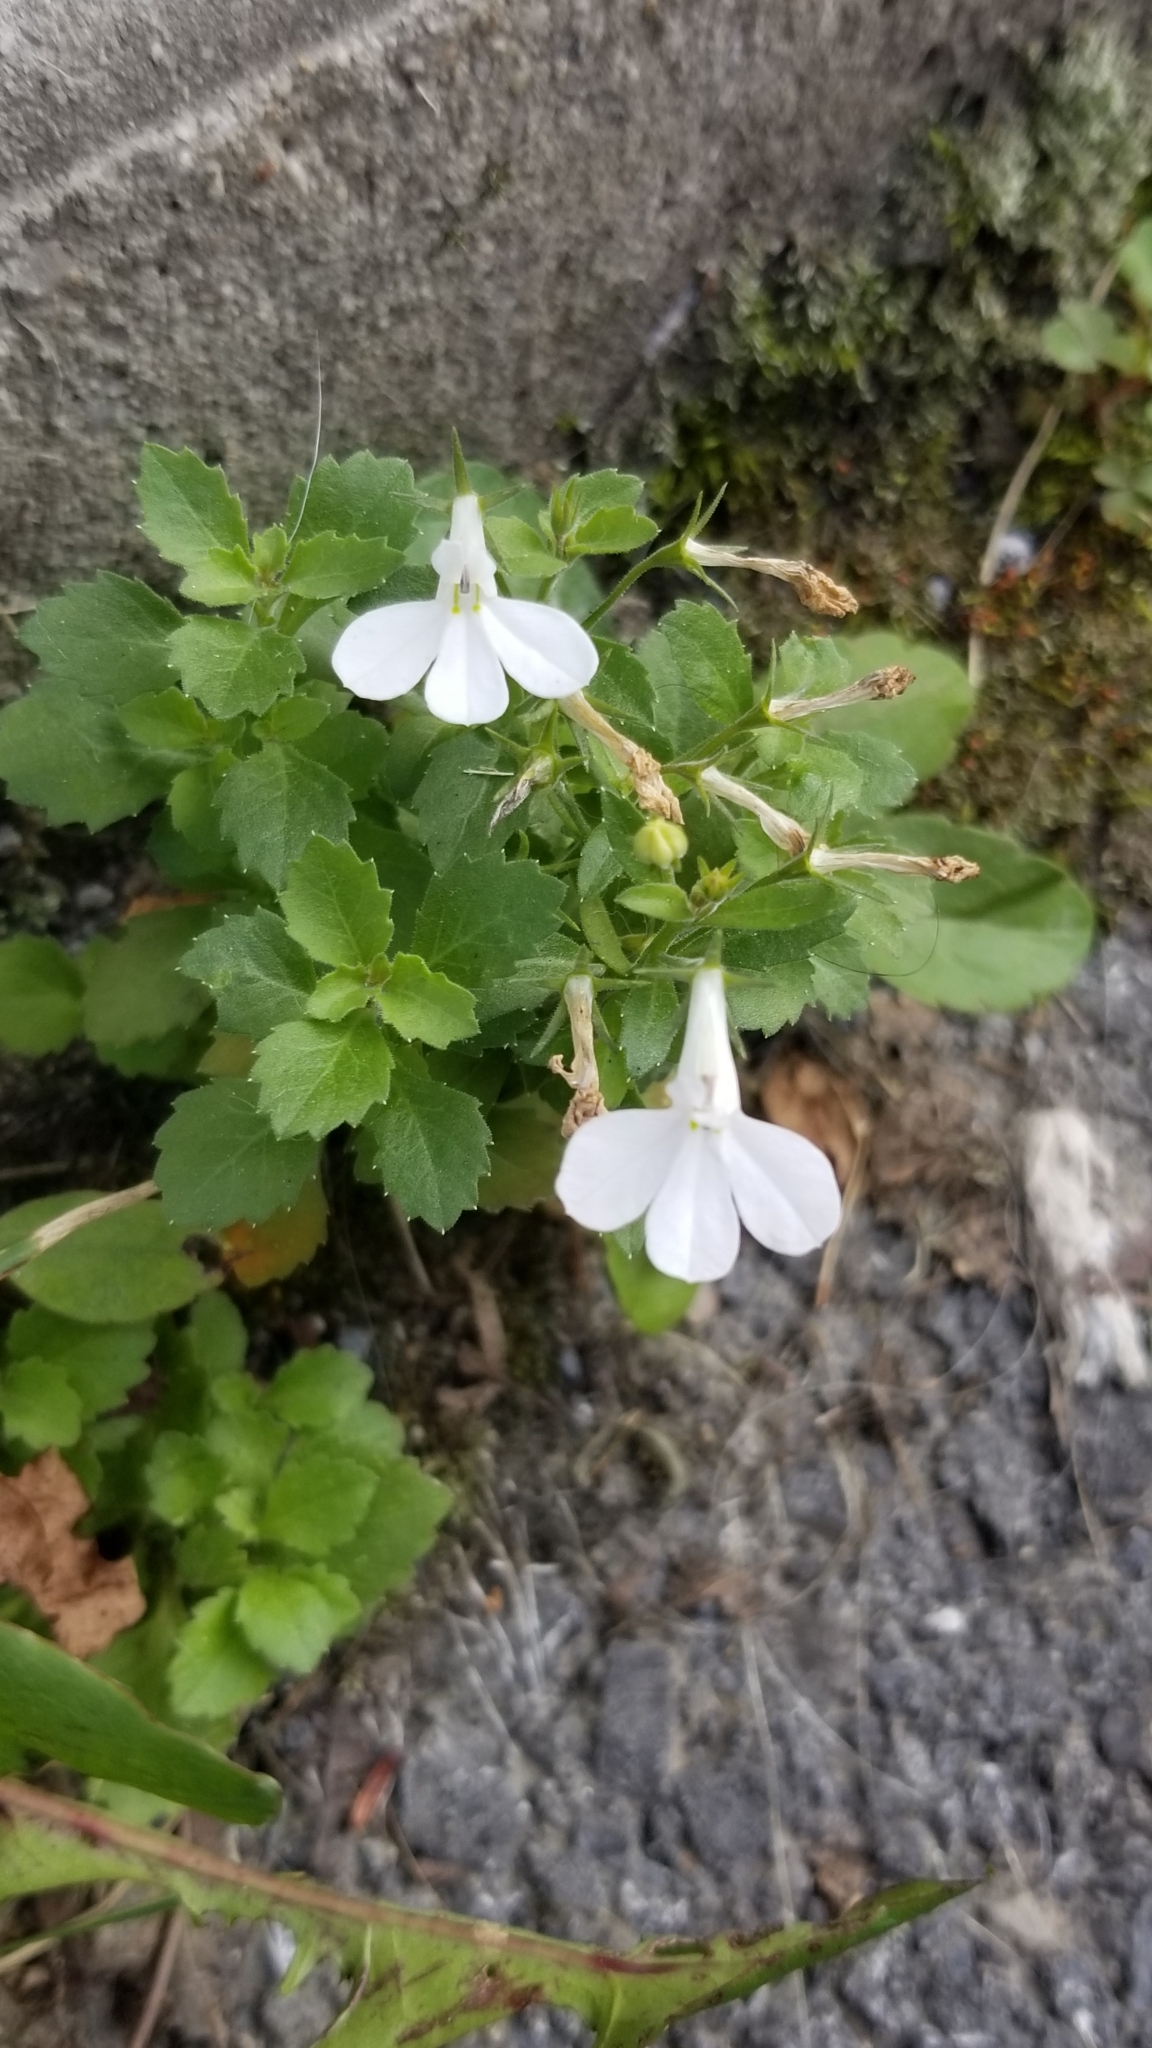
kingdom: Plantae
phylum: Tracheophyta
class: Magnoliopsida
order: Asterales
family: Campanulaceae
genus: Lobelia
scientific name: Lobelia erinus
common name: Edging lobelia
